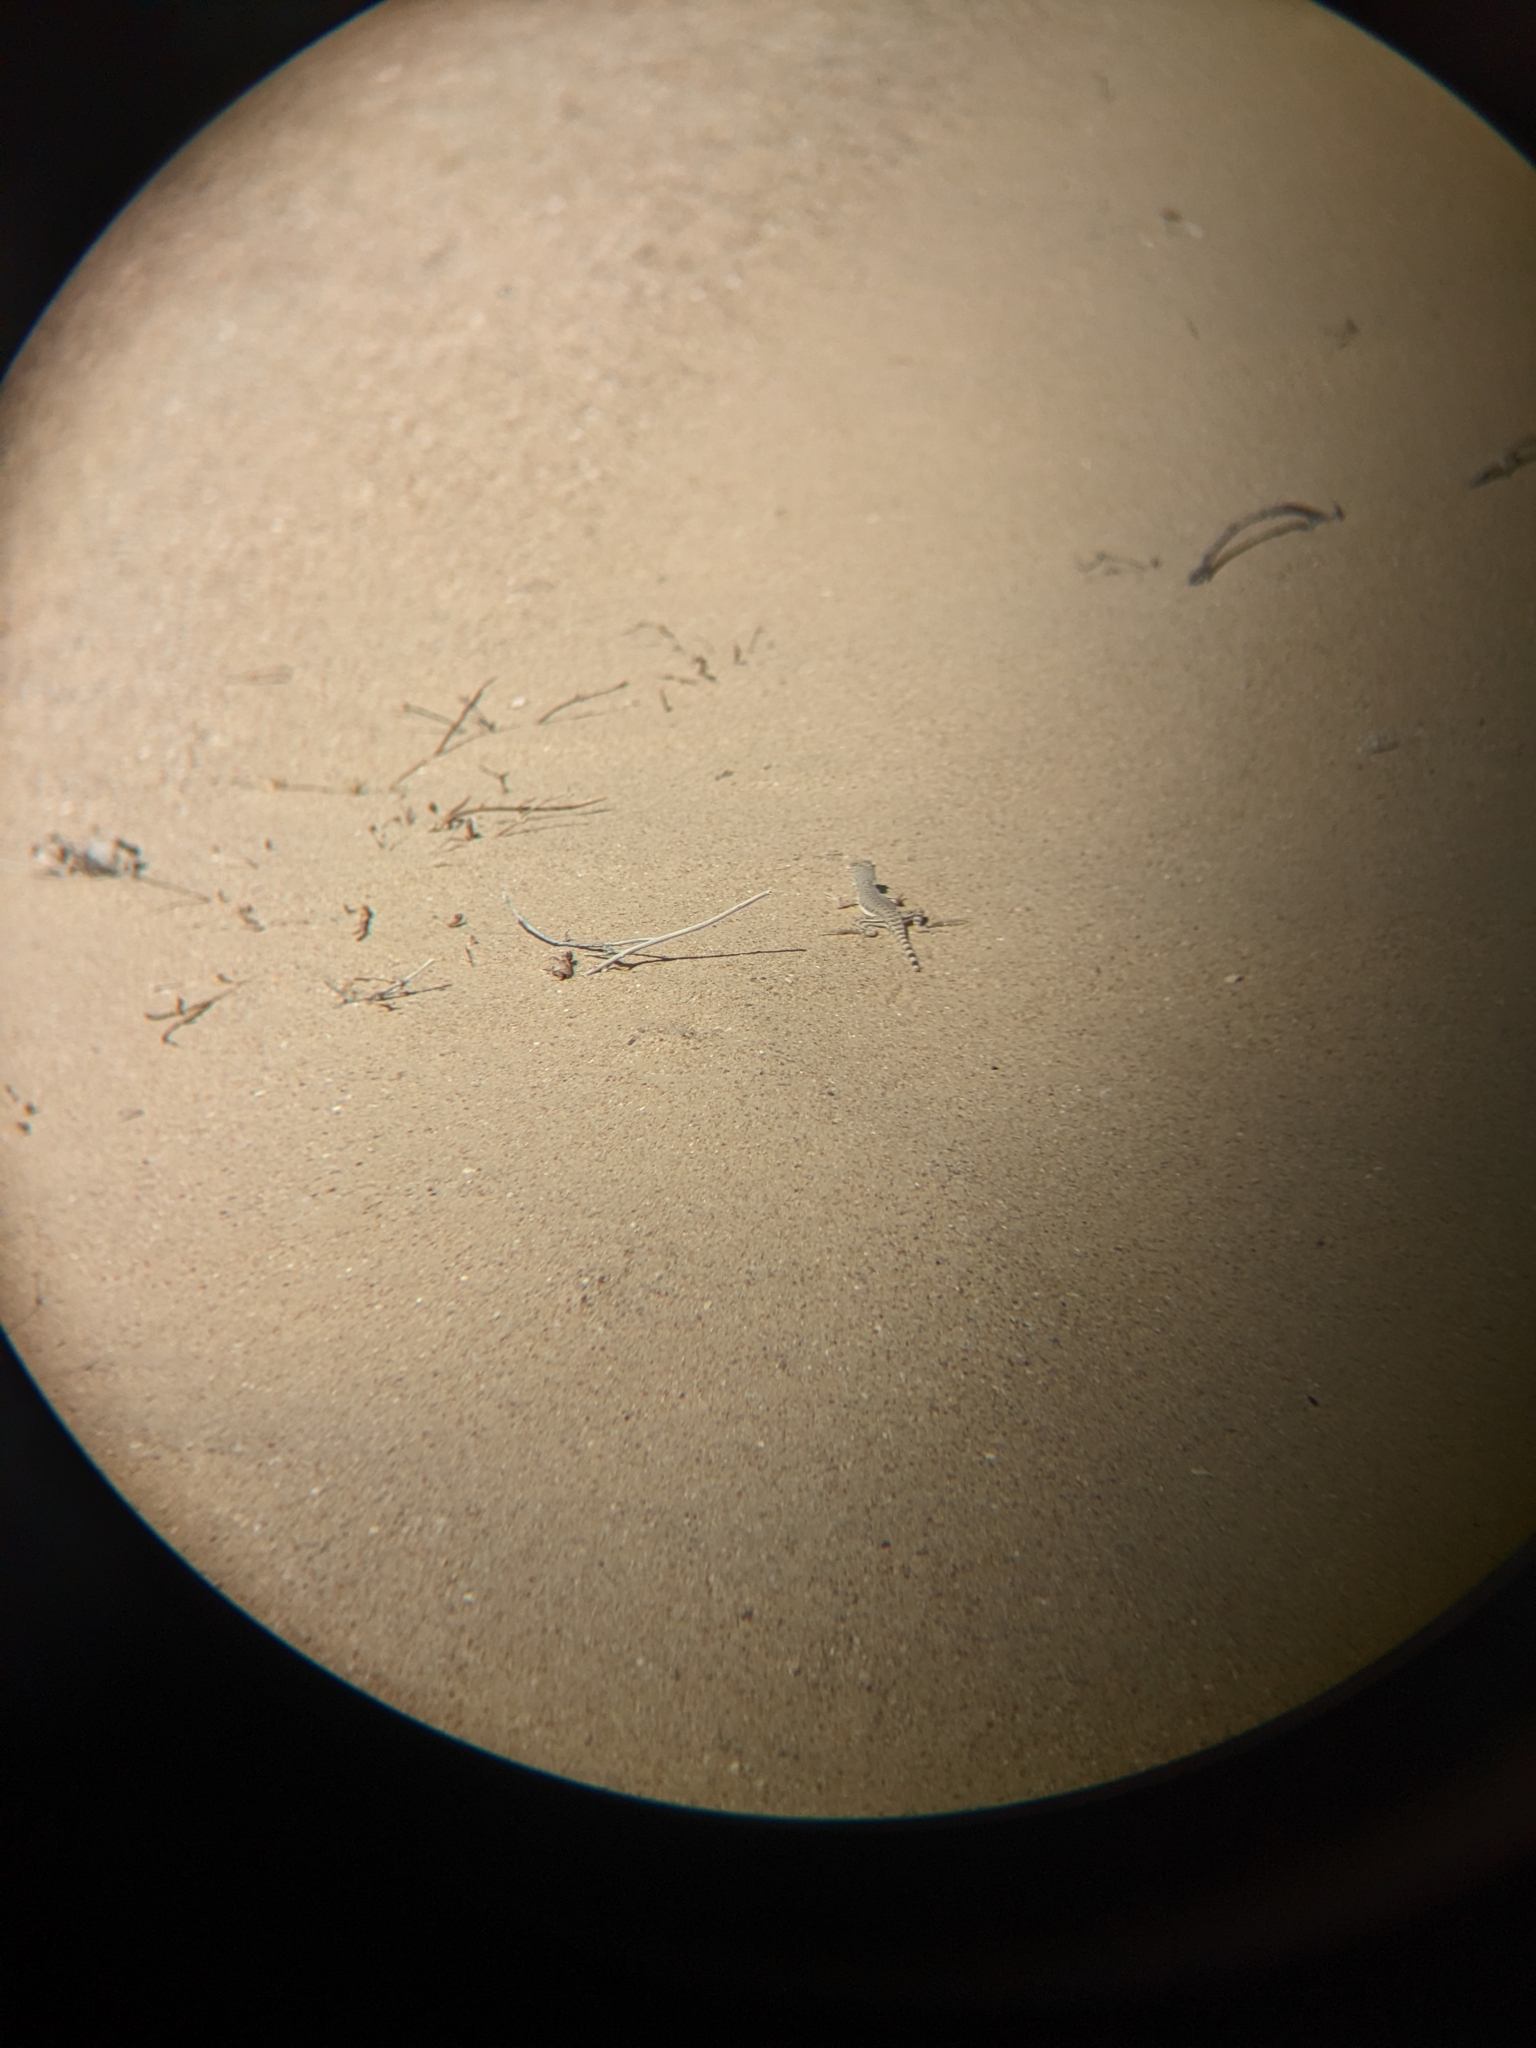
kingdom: Animalia
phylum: Chordata
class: Squamata
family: Phrynosomatidae
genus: Callisaurus
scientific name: Callisaurus draconoides
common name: Zebra-tailed lizard
